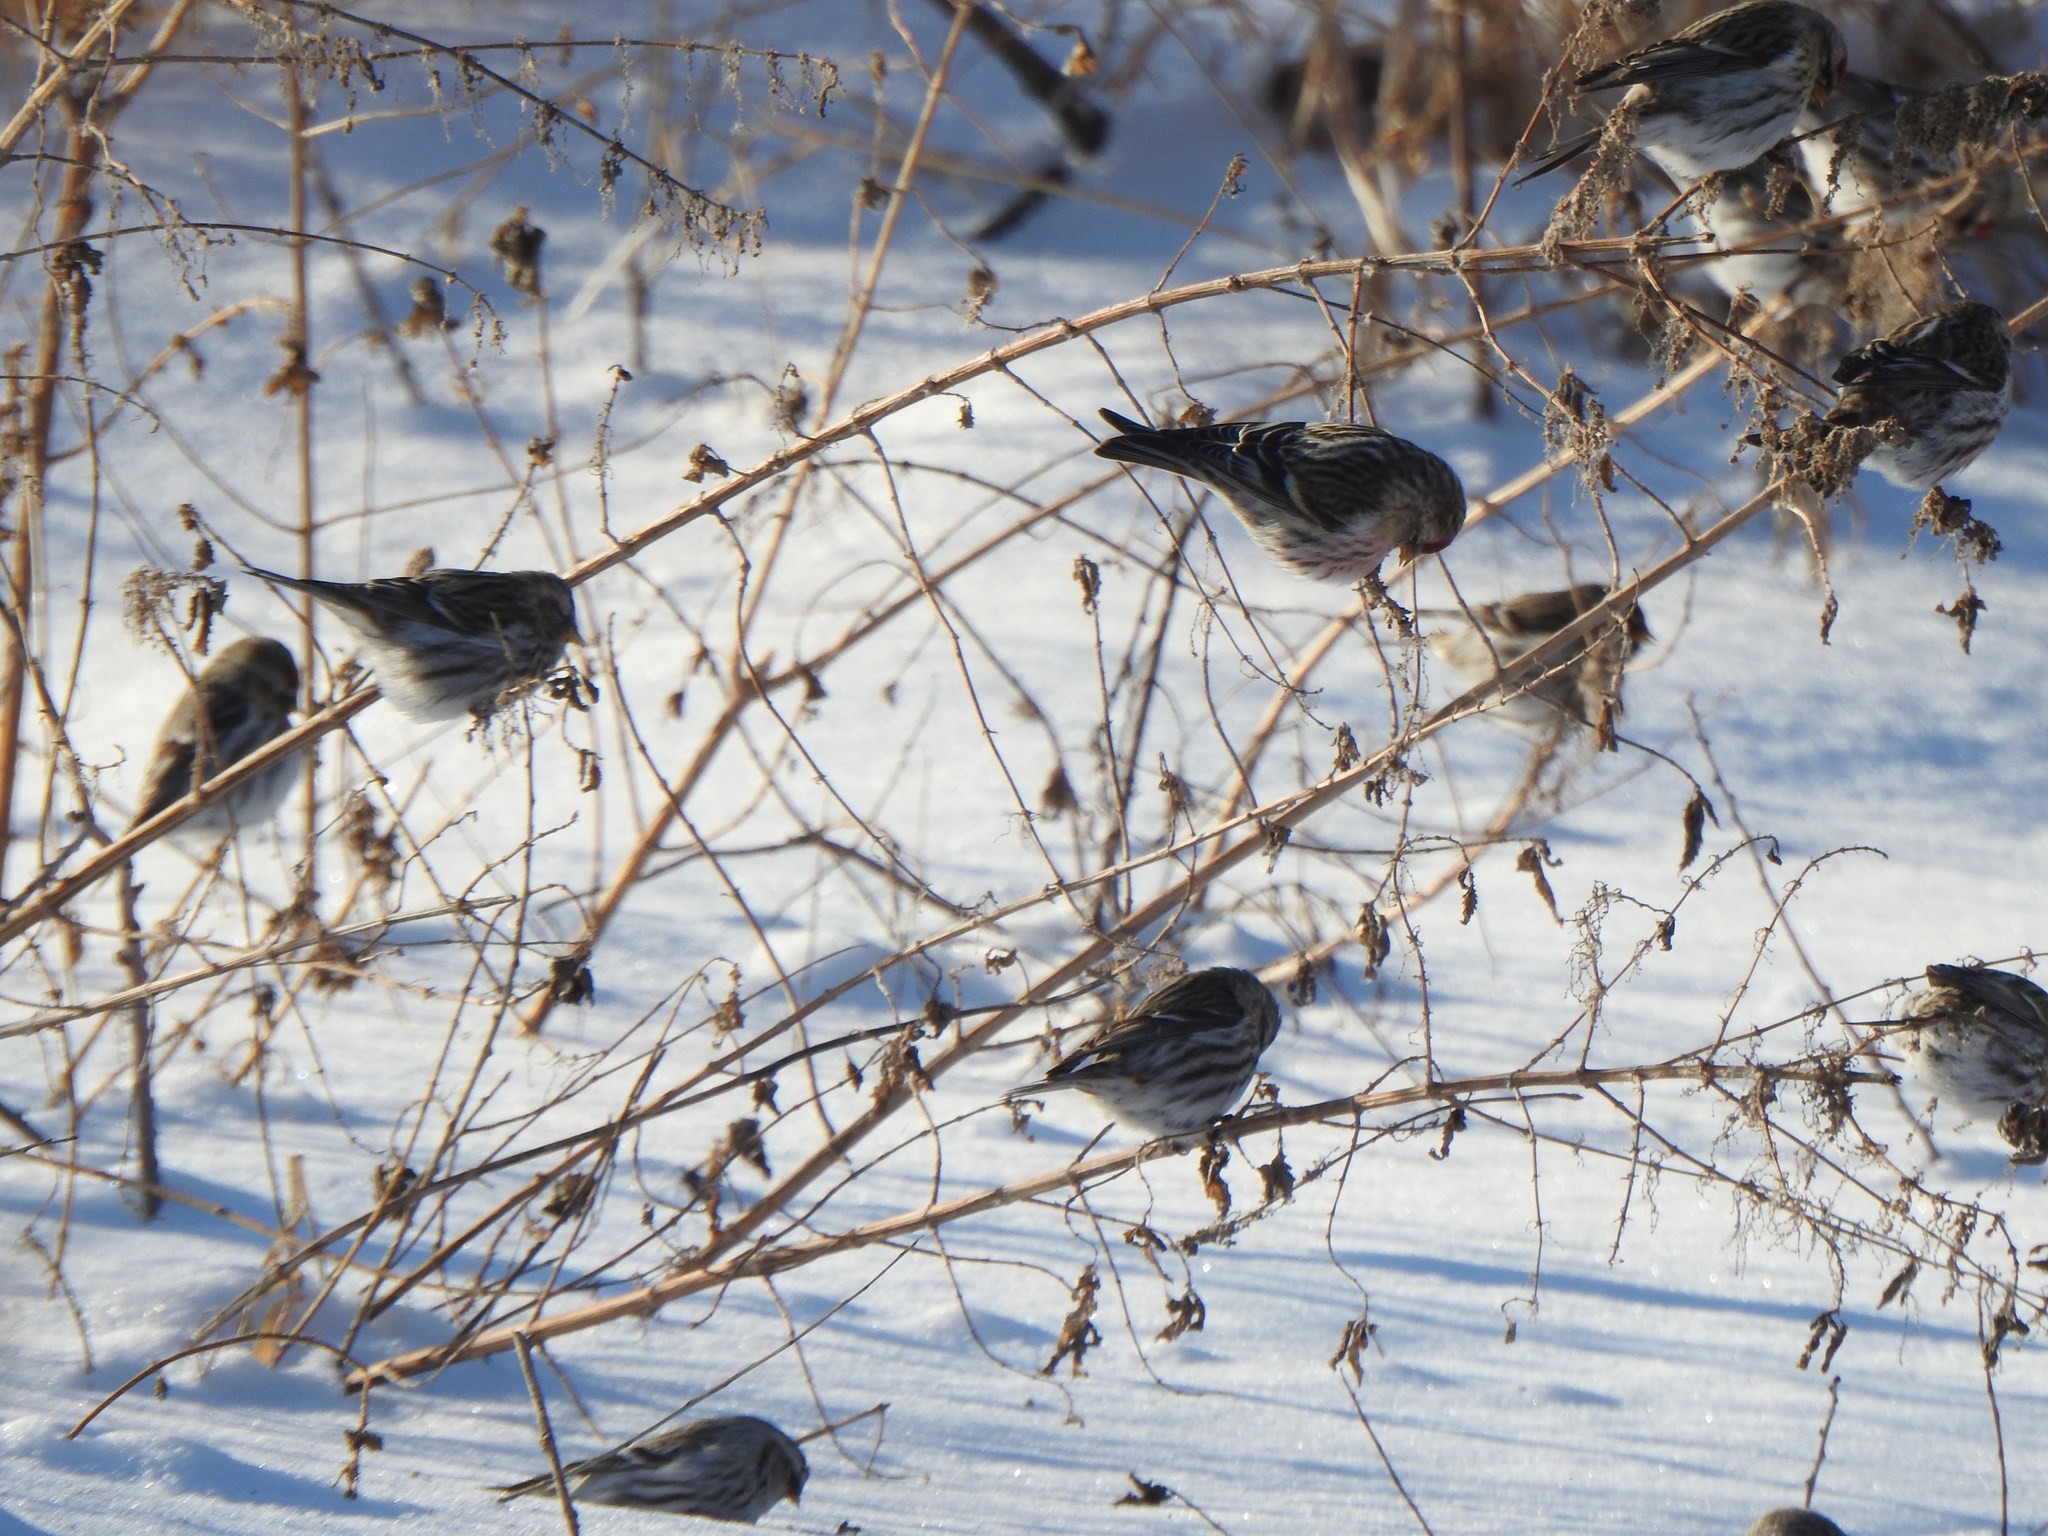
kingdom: Animalia
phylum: Chordata
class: Aves
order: Passeriformes
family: Fringillidae
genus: Acanthis
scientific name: Acanthis flammea
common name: Common redpoll
